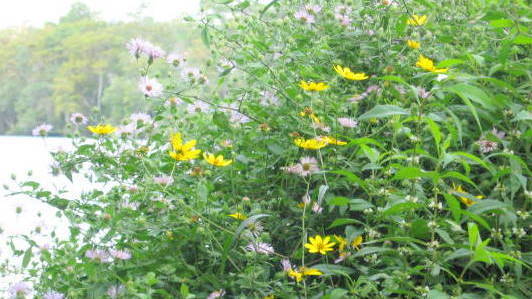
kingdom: Plantae
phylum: Tracheophyta
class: Magnoliopsida
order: Asterales
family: Asteraceae
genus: Bidens
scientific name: Bidens laevis
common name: Larger bur-marigold
